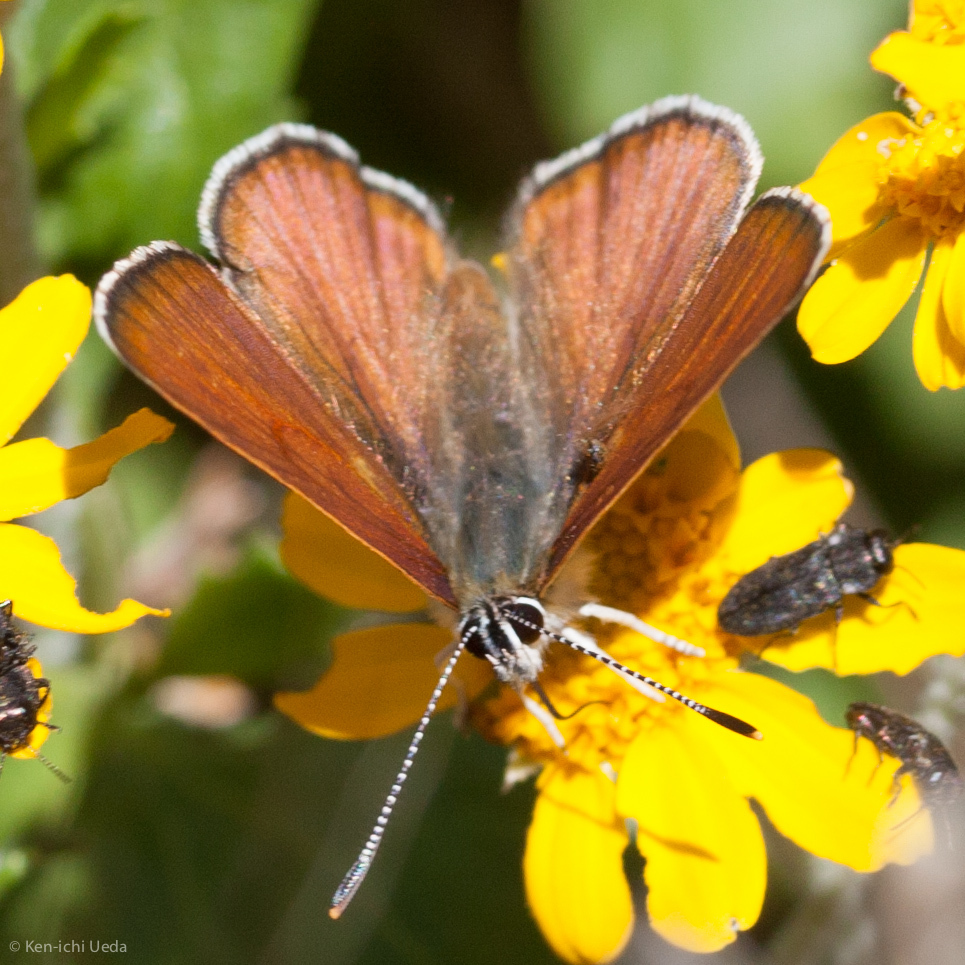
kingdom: Animalia
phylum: Arthropoda
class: Insecta
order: Lepidoptera
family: Lycaenidae
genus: Tharsalea
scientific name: Tharsalea gorgon
